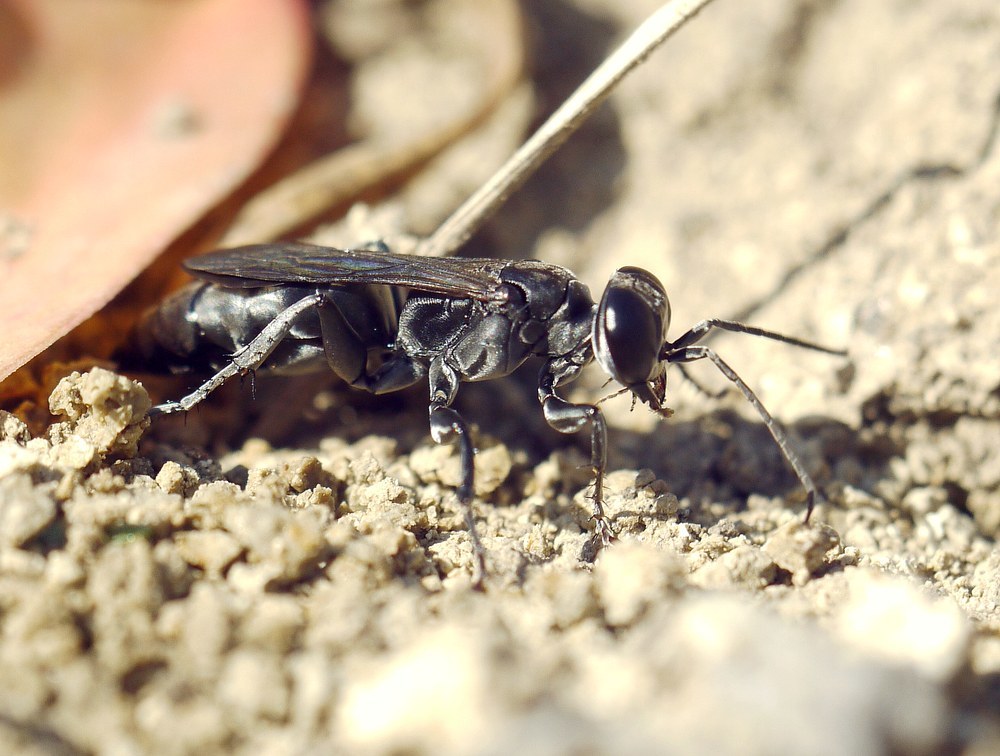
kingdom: Animalia
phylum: Arthropoda
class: Insecta
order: Hymenoptera
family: Crabronidae
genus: Liris
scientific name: Liris niger
